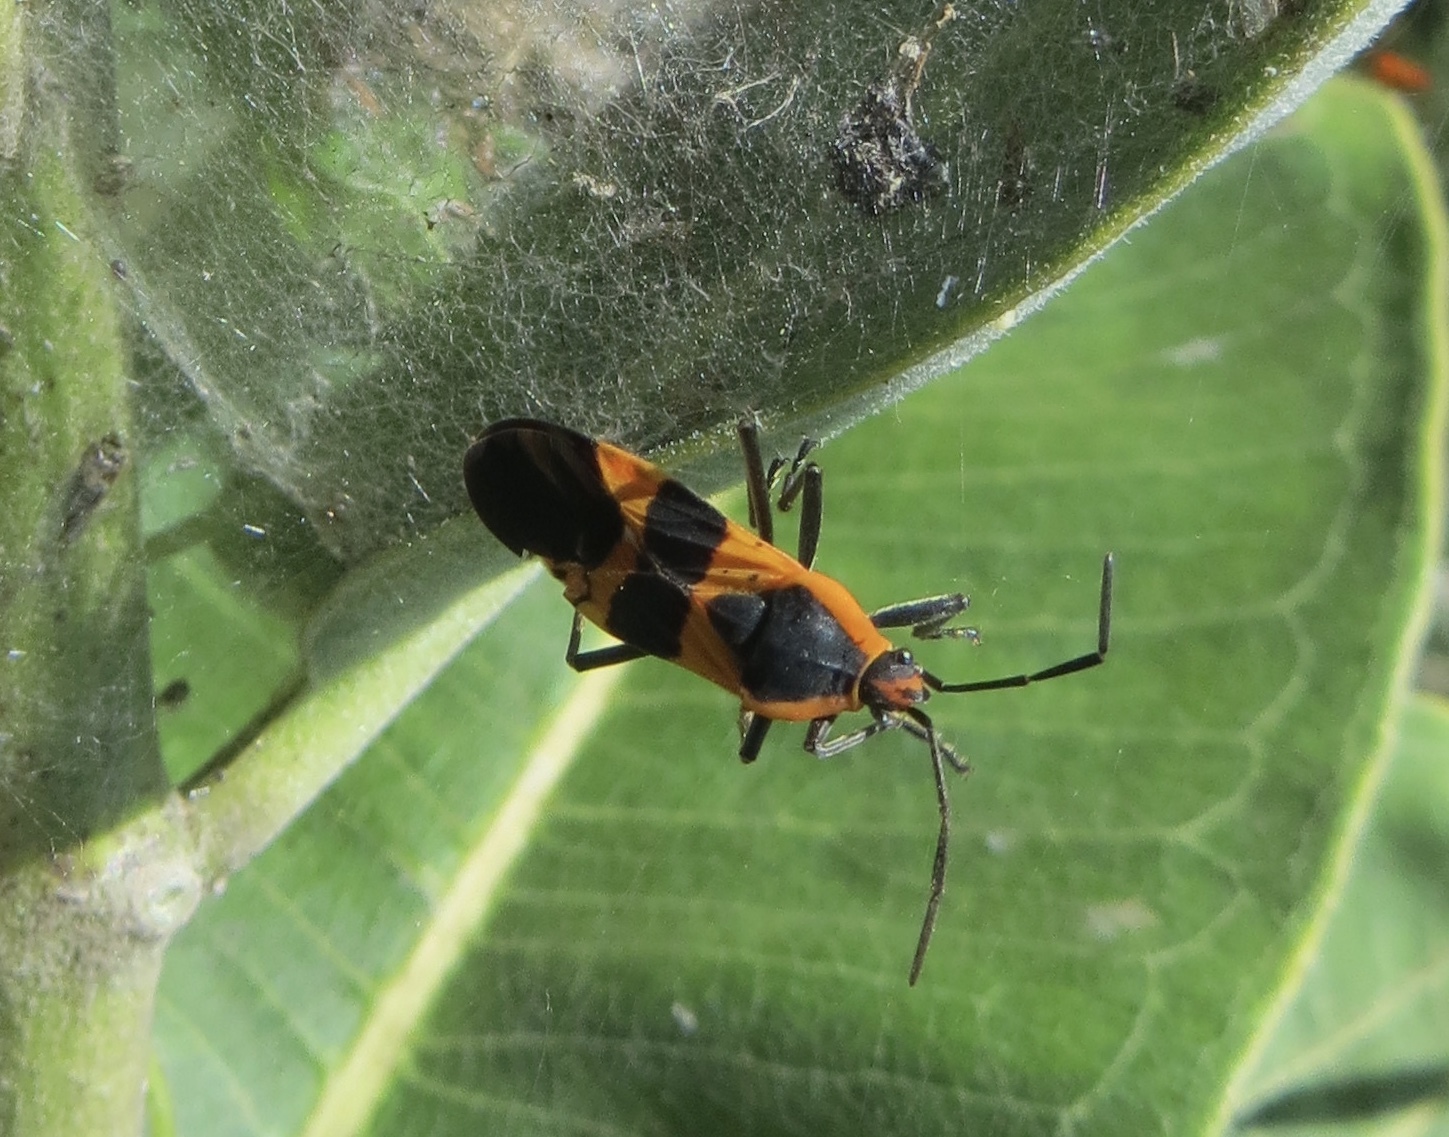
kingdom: Animalia
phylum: Arthropoda
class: Insecta
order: Hemiptera
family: Lygaeidae
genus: Oncopeltus
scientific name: Oncopeltus fasciatus
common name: Large milkweed bug
